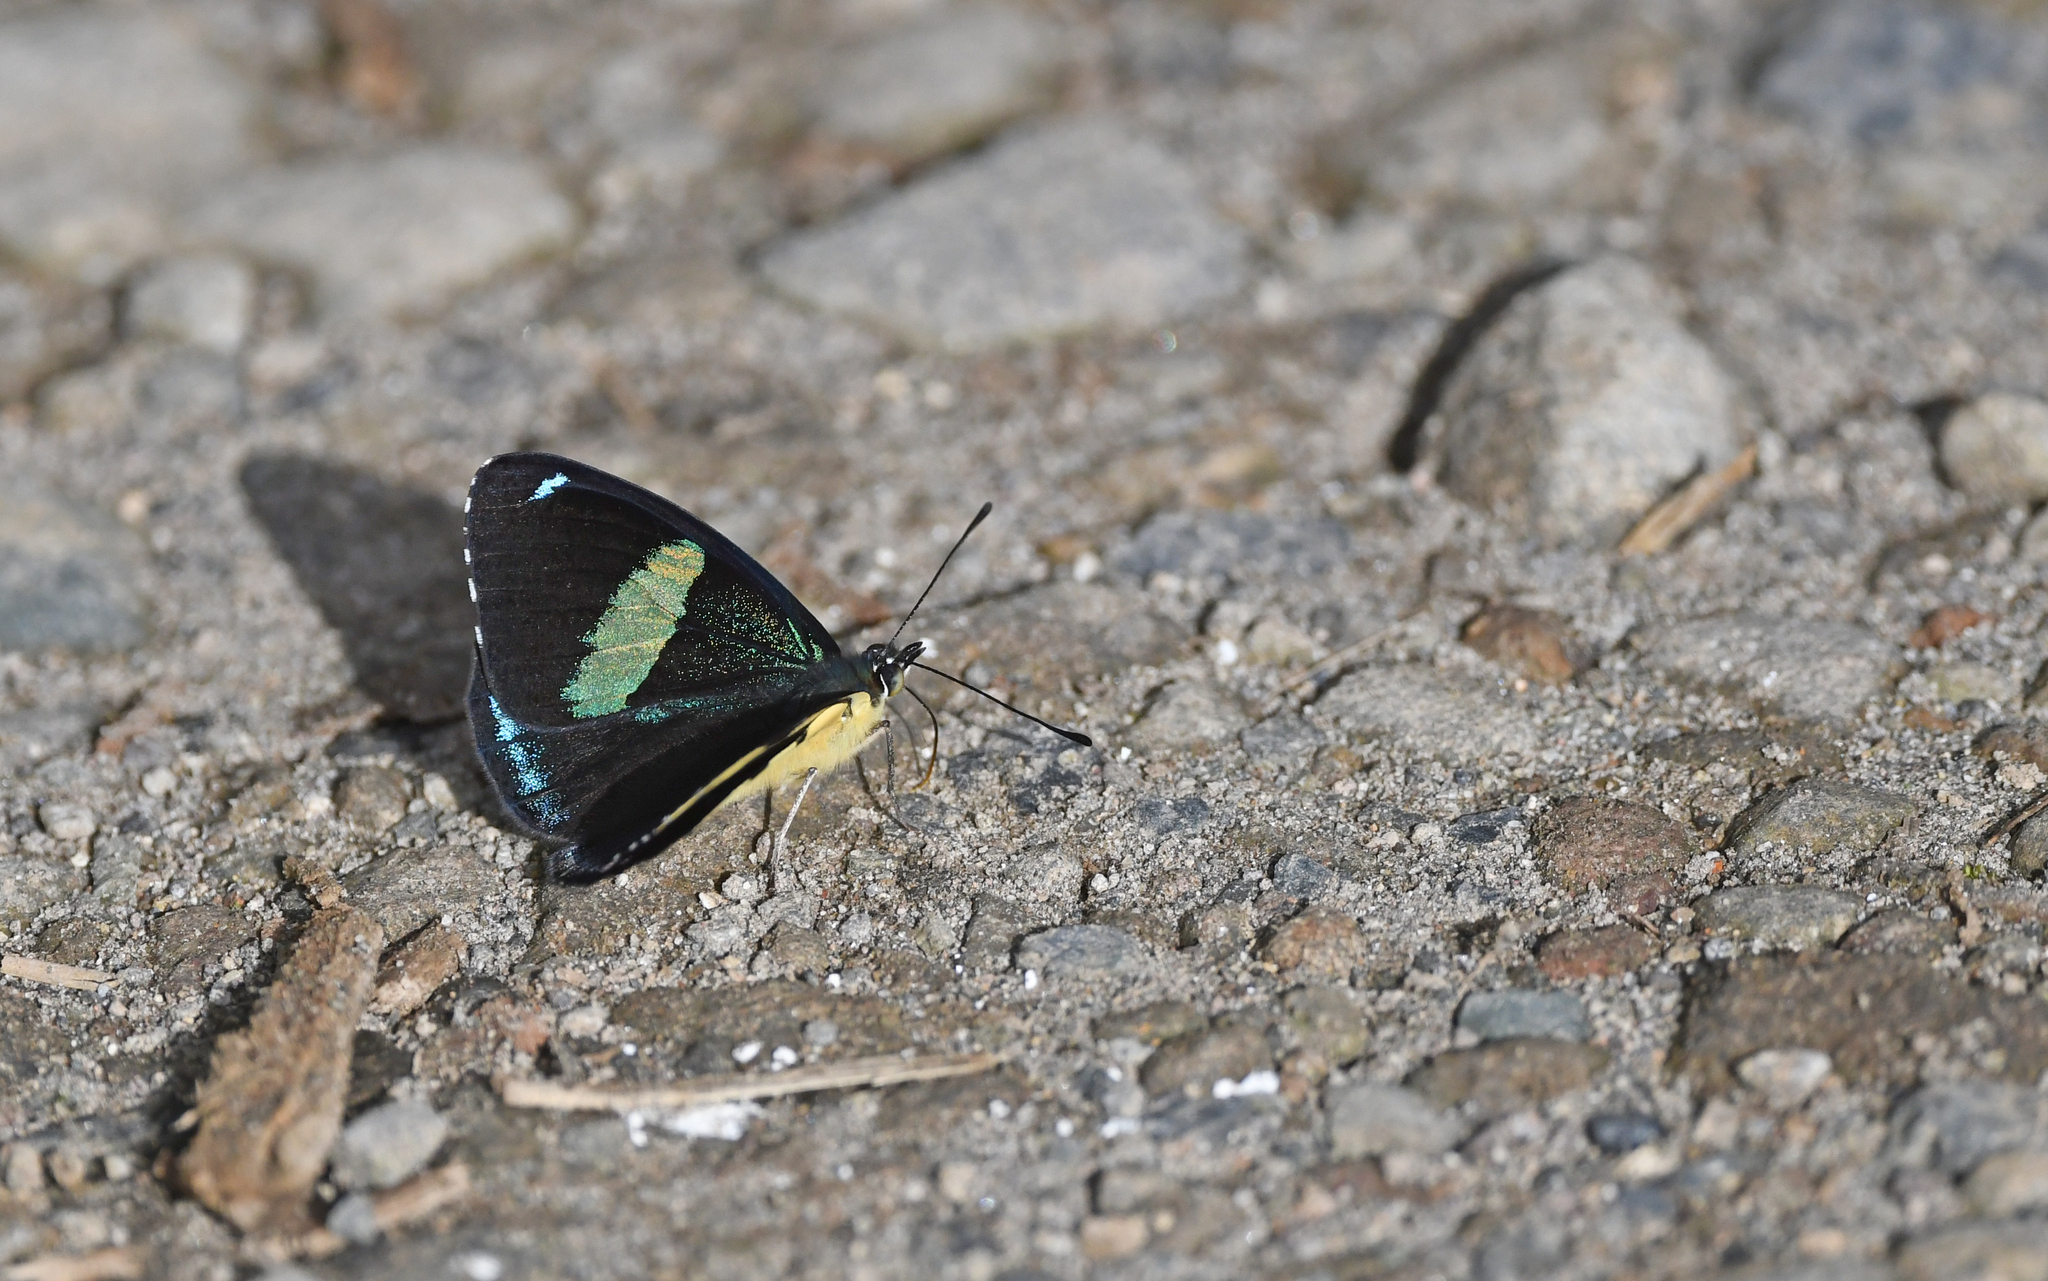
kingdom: Animalia
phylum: Arthropoda
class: Insecta
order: Lepidoptera
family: Nymphalidae
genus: Perisama
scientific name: Perisama oppelii
